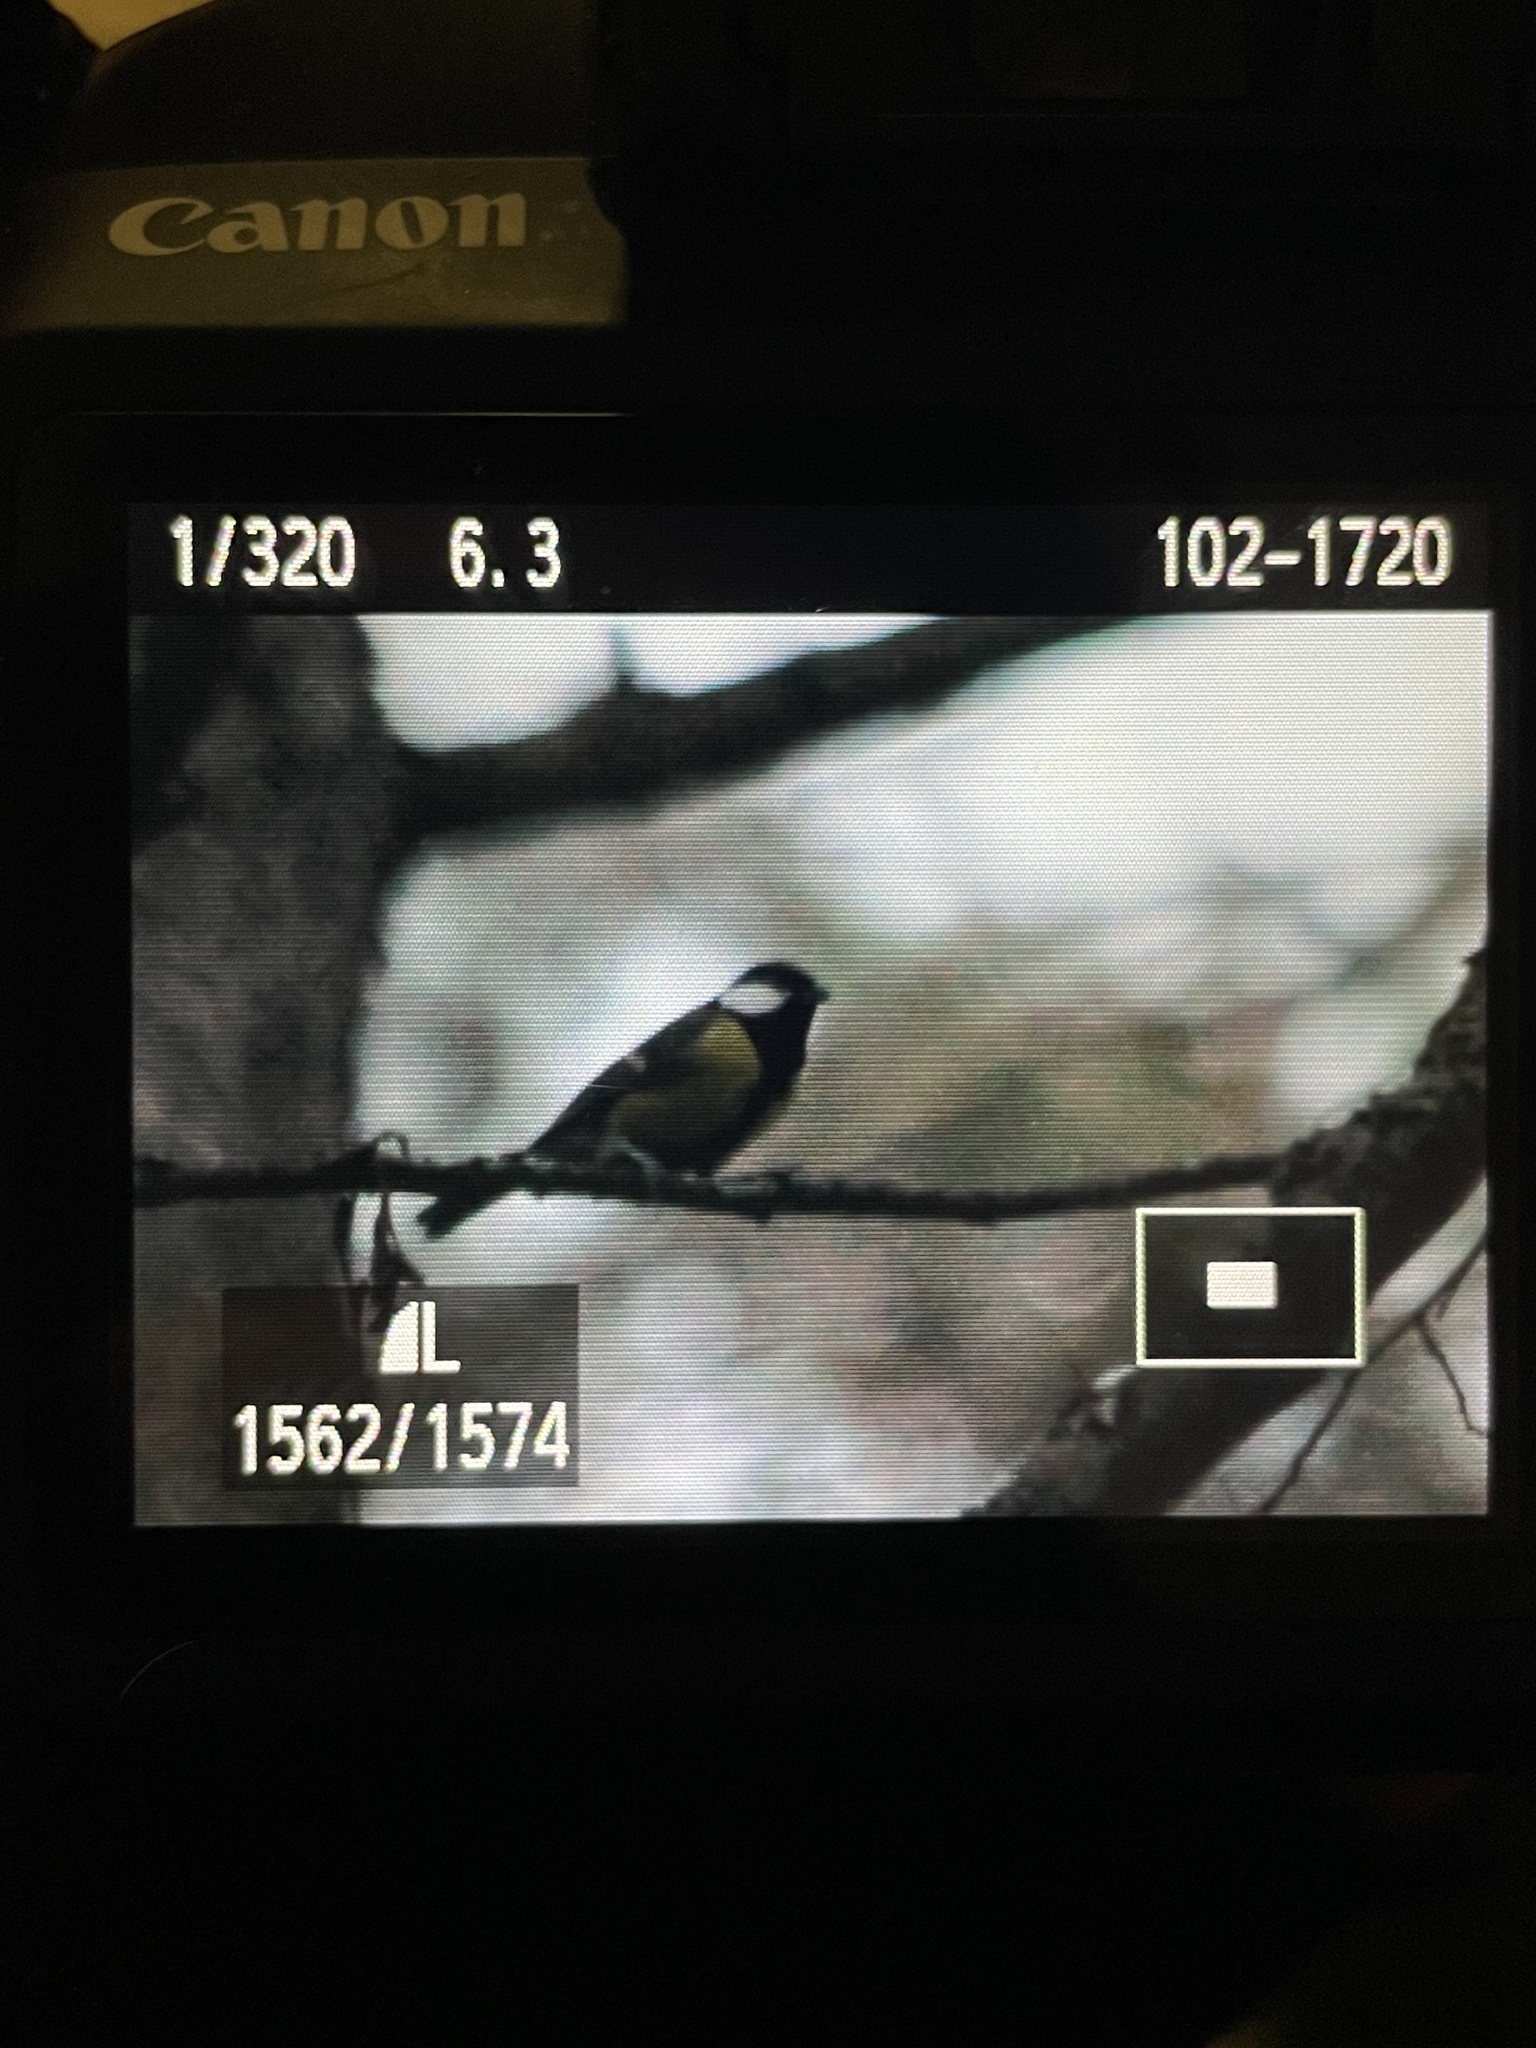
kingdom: Animalia
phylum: Chordata
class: Aves
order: Passeriformes
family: Paridae
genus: Parus
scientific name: Parus major
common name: Great tit
